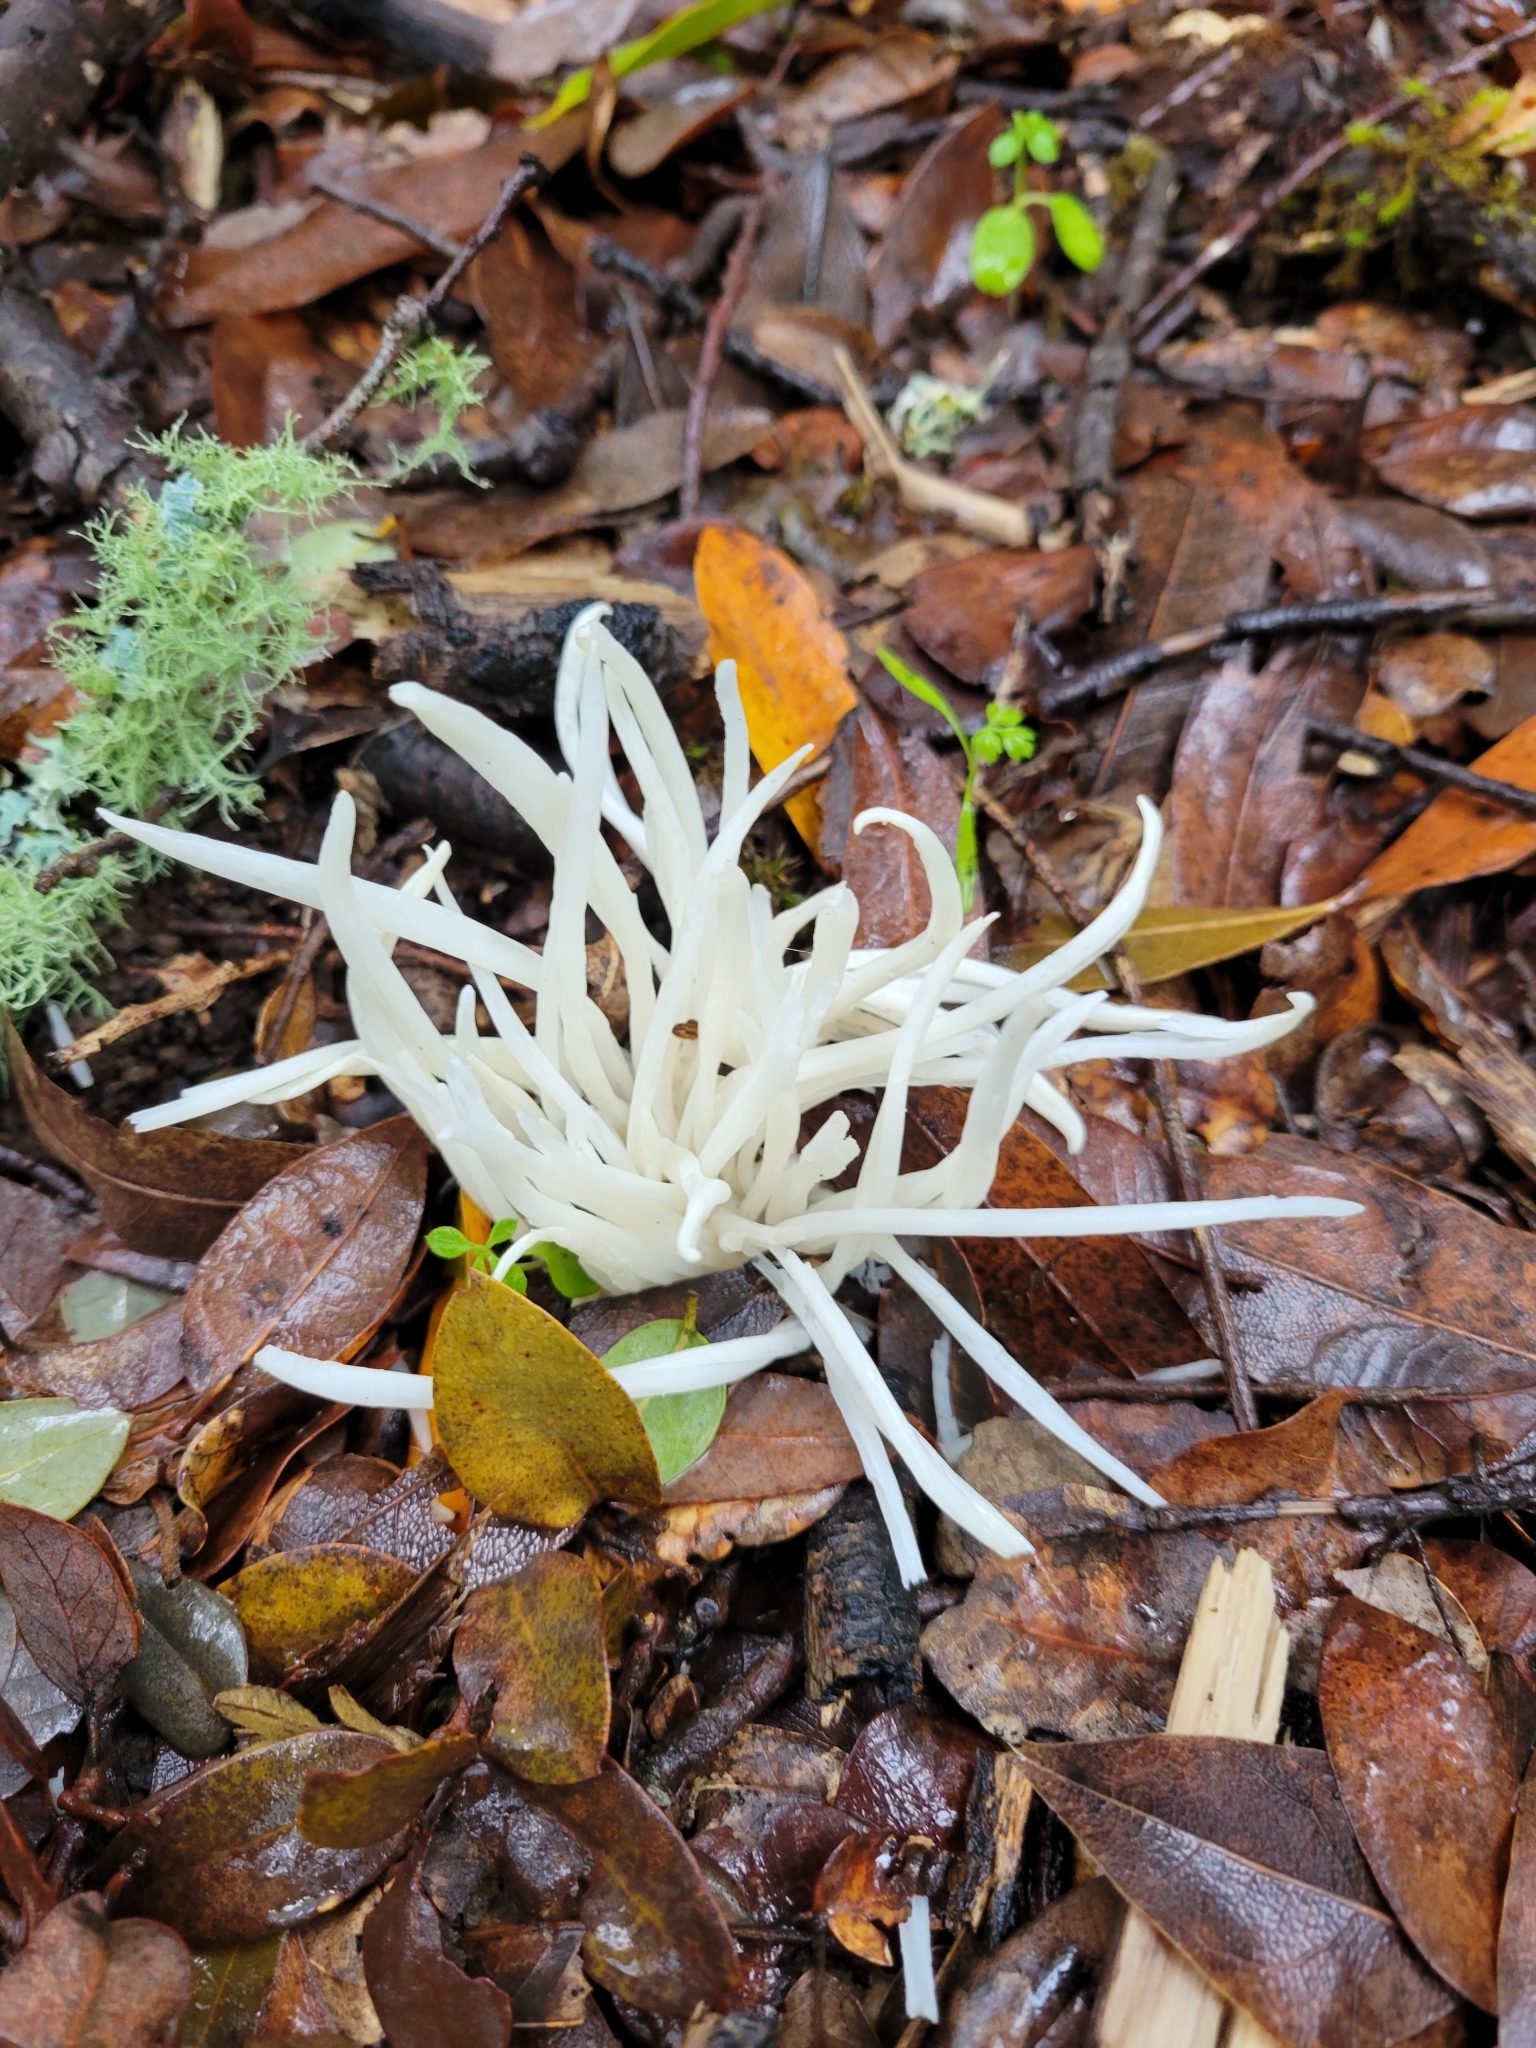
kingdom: Fungi
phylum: Basidiomycota
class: Agaricomycetes
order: Agaricales
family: Clavariaceae
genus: Clavaria
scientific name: Clavaria fragilis
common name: White spindles
